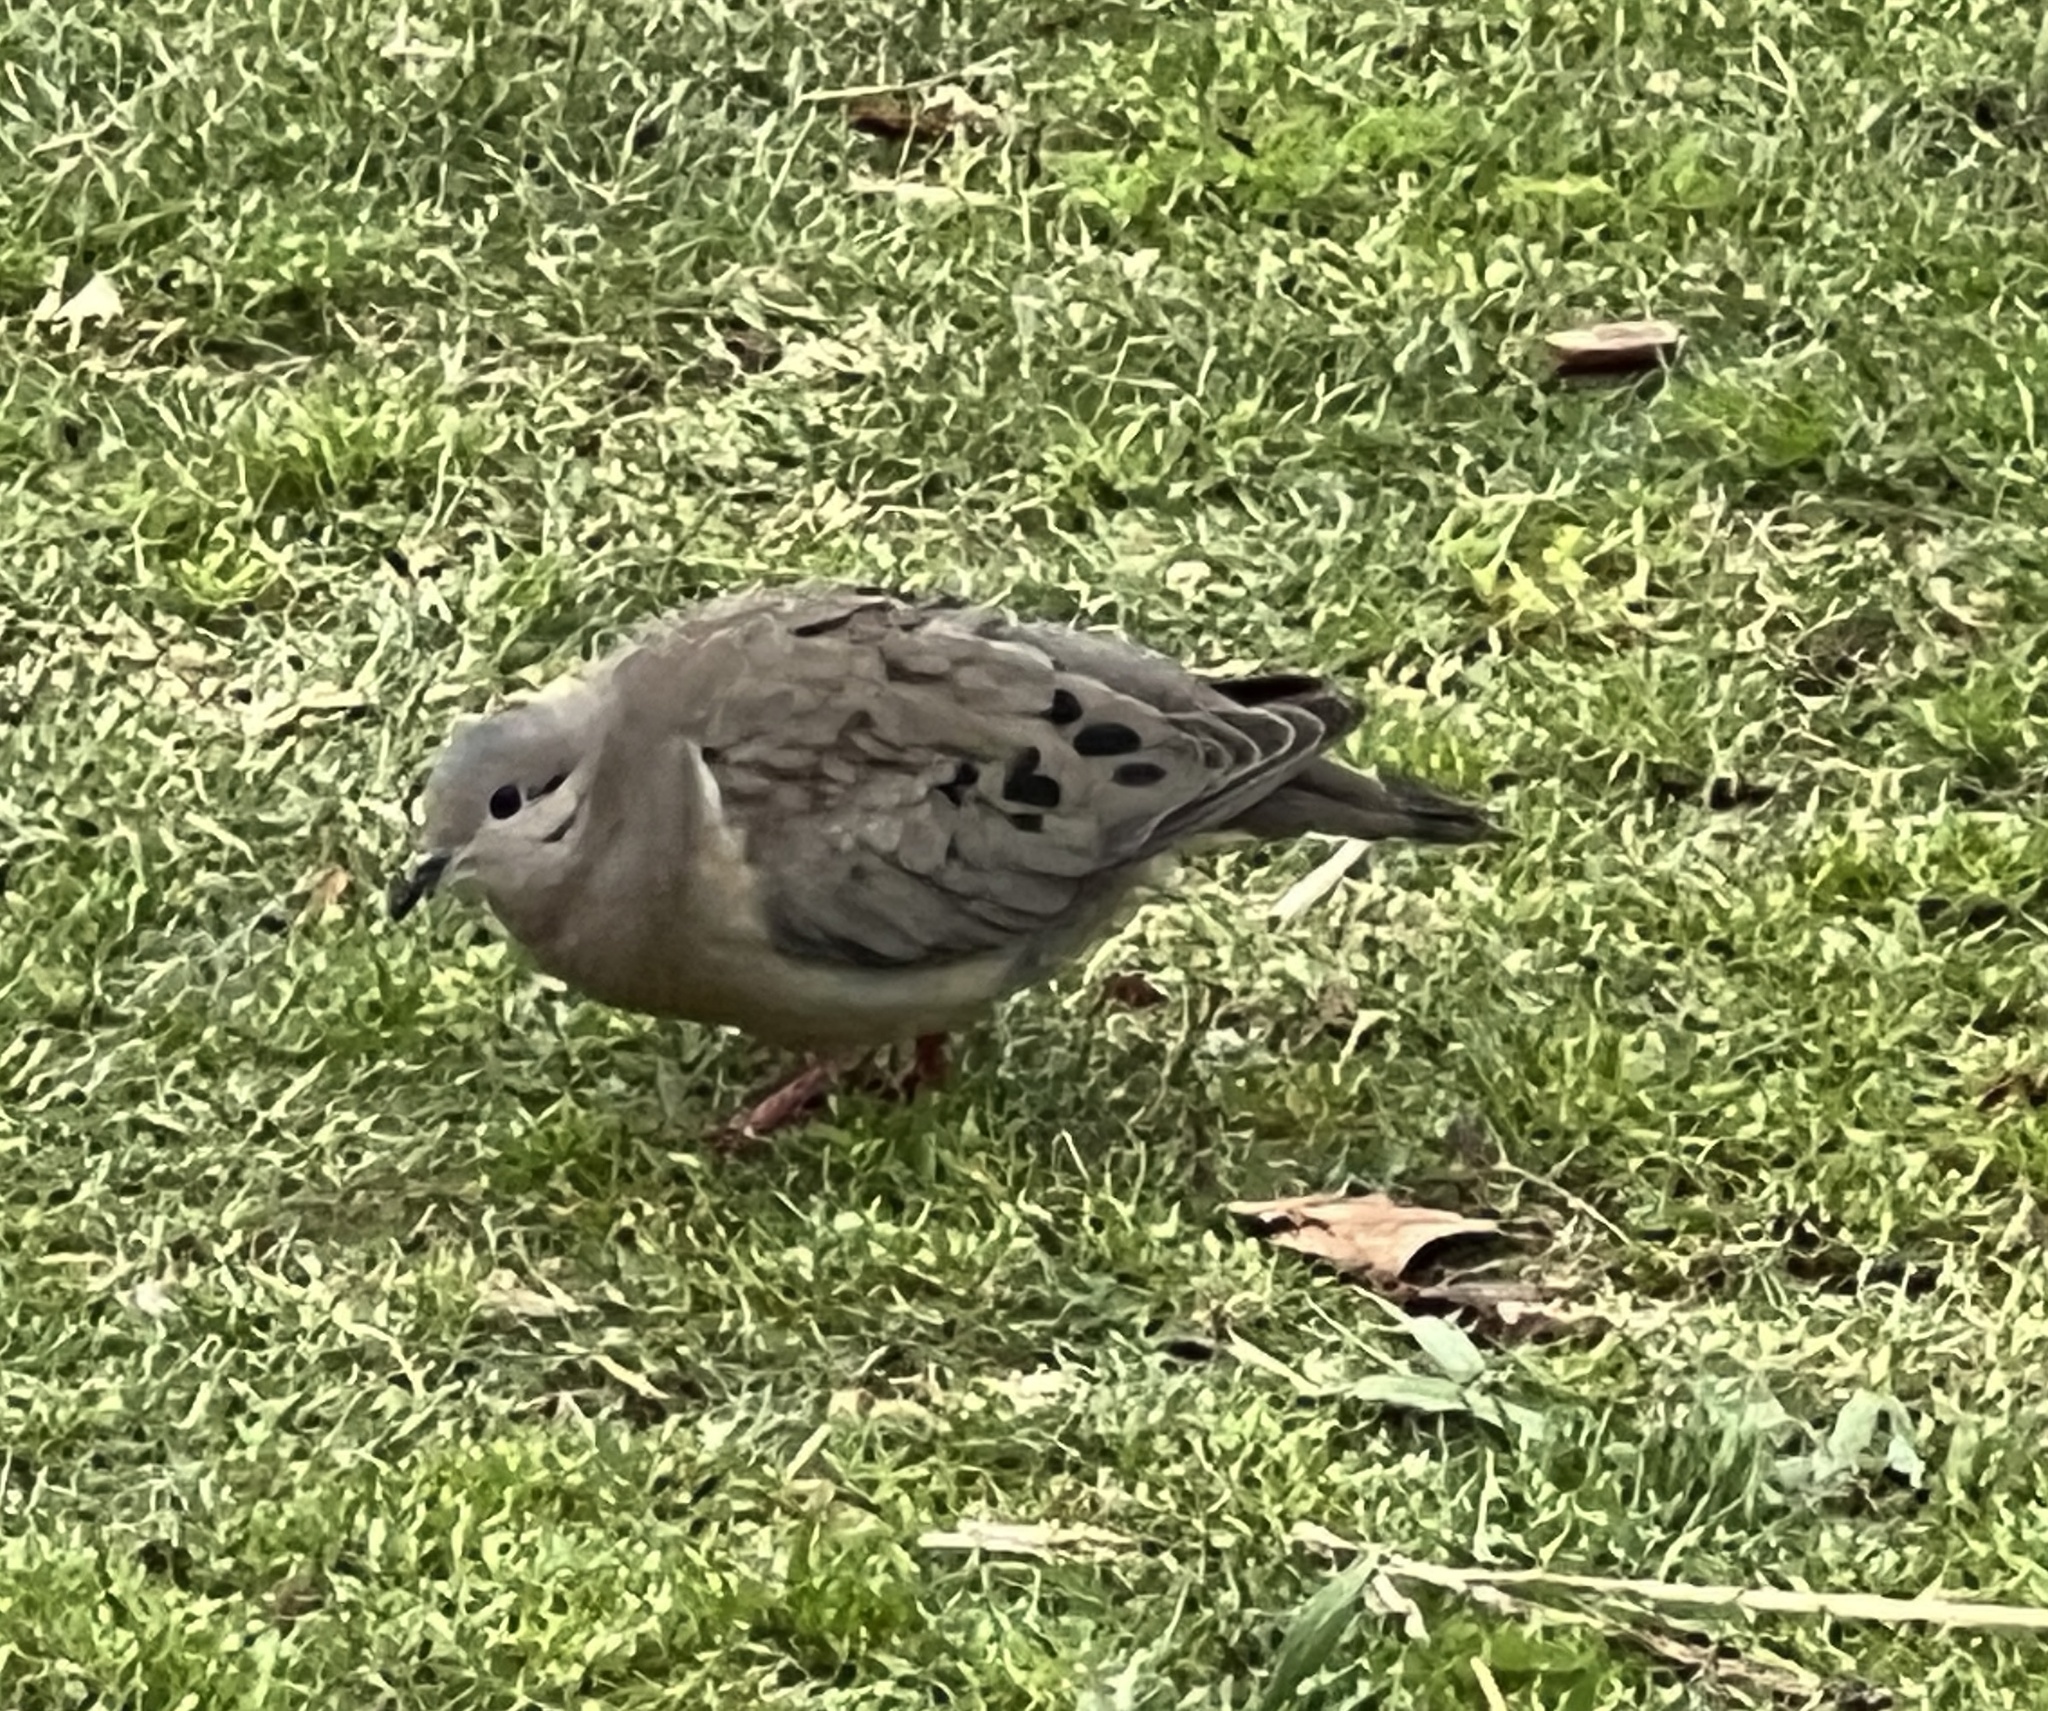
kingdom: Animalia
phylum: Chordata
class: Aves
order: Columbiformes
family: Columbidae
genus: Zenaida
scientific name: Zenaida auriculata
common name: Eared dove
